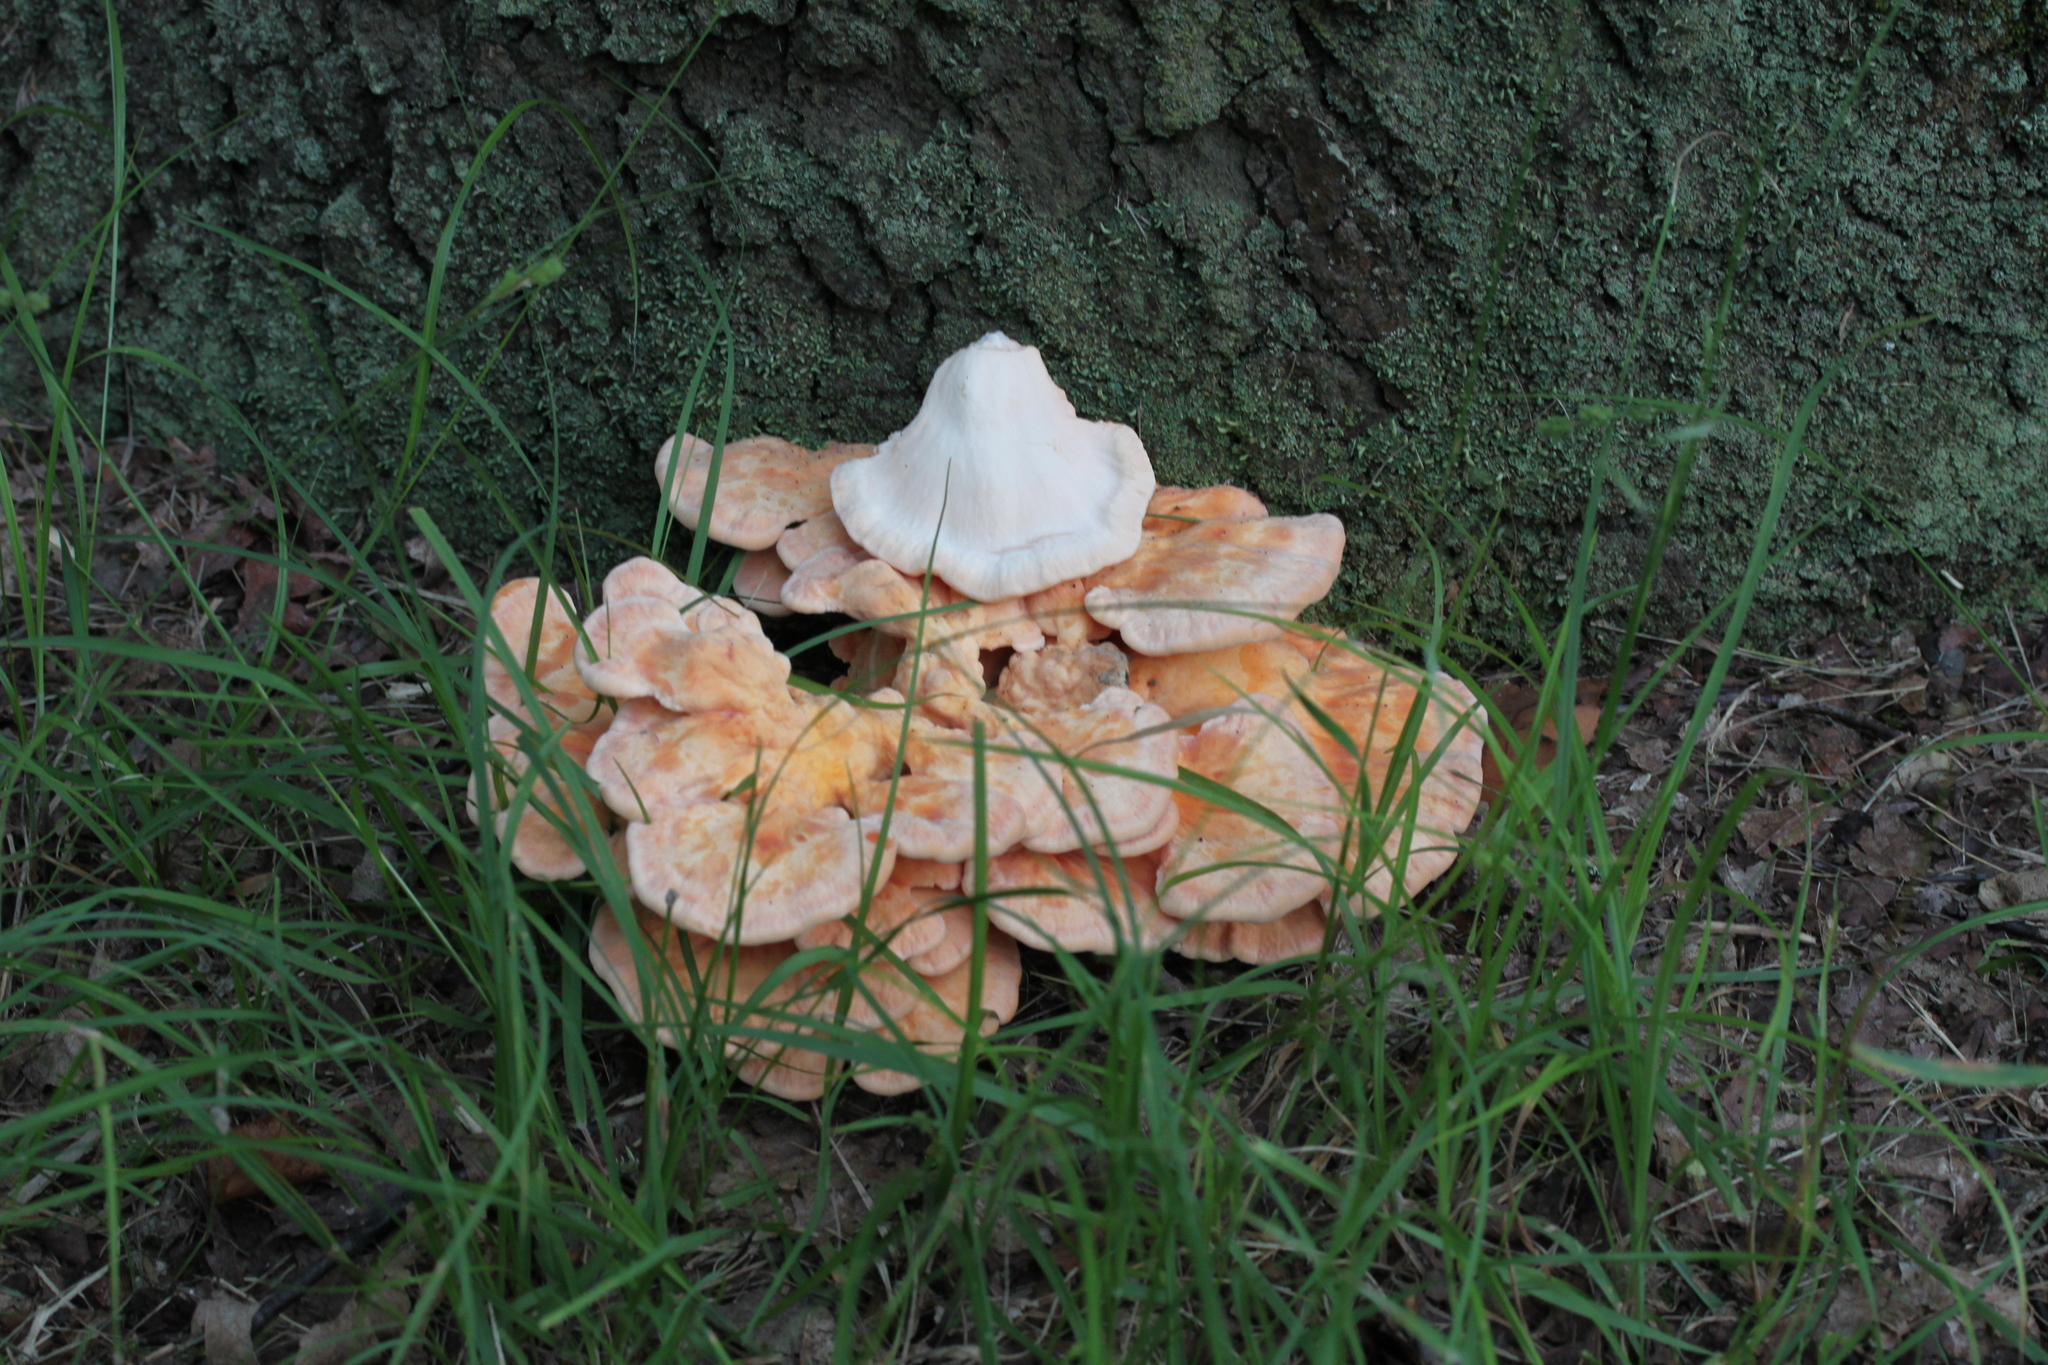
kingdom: Fungi
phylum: Basidiomycota
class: Agaricomycetes
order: Polyporales
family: Laetiporaceae
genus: Laetiporus
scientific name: Laetiporus sulphureus
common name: Chicken of the woods
